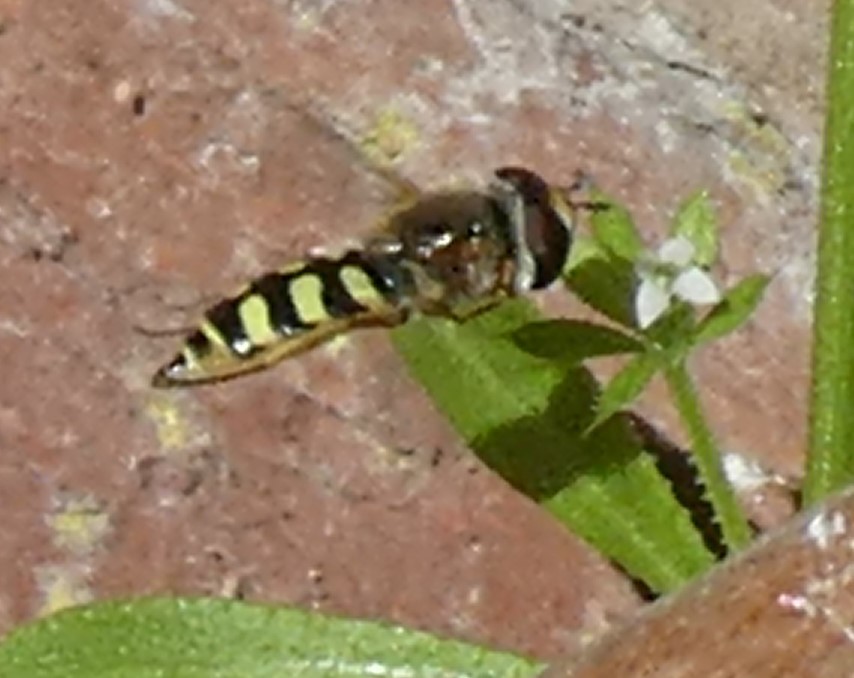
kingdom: Animalia
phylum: Arthropoda
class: Insecta
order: Diptera
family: Syrphidae
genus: Eupeodes
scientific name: Eupeodes corollae
